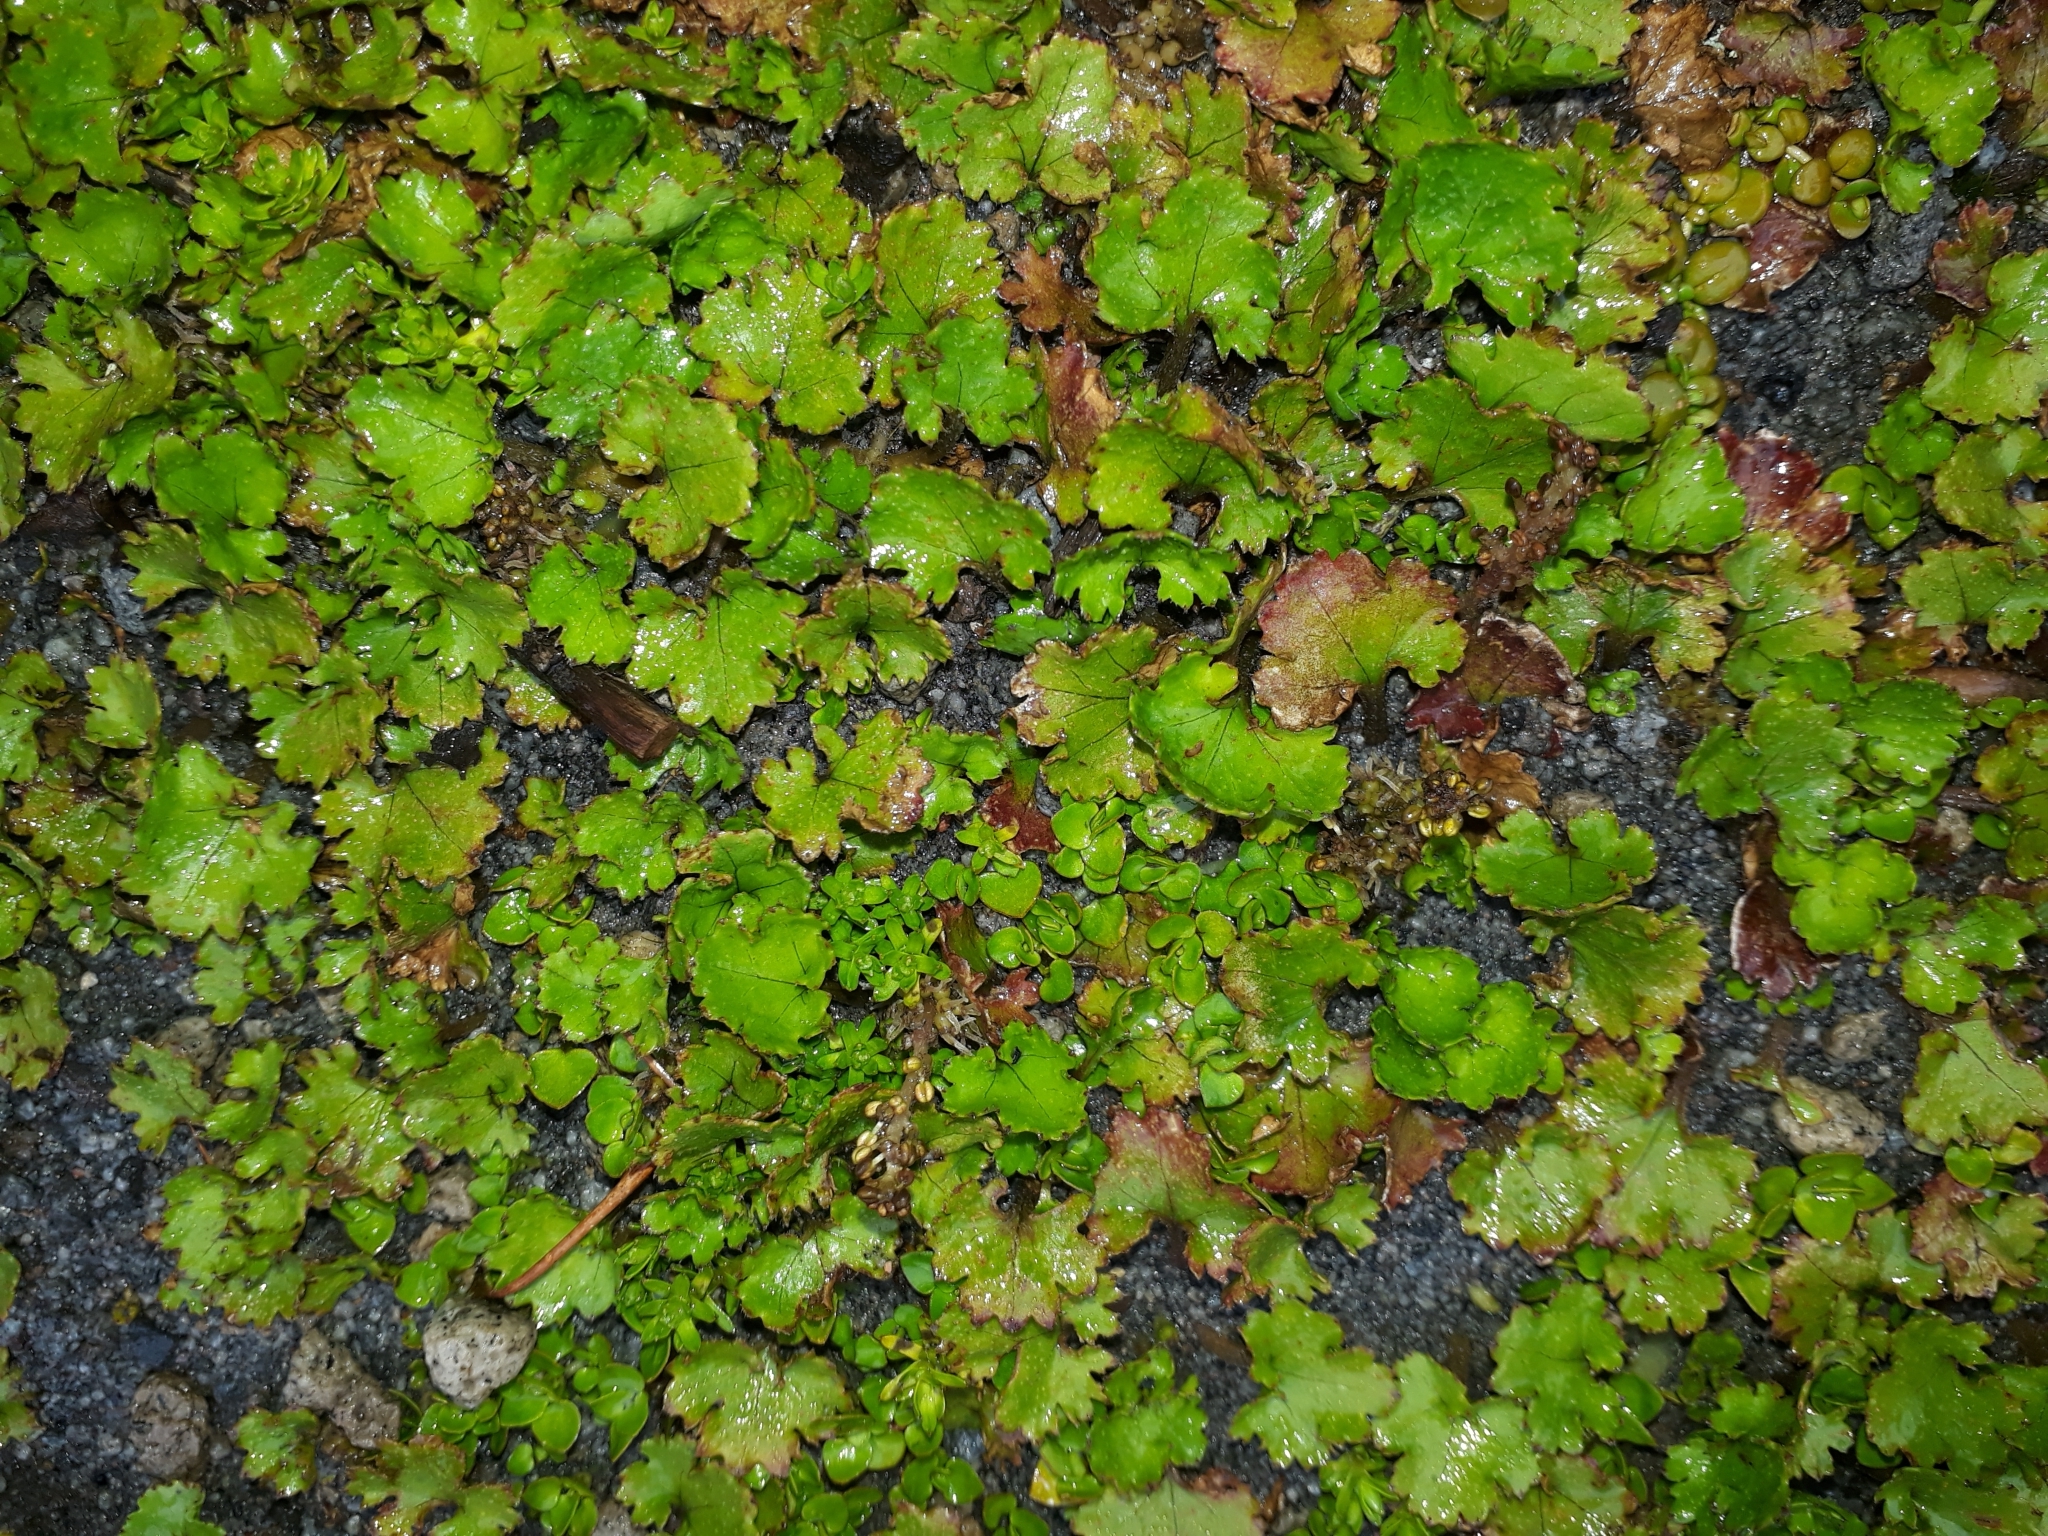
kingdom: Plantae
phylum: Tracheophyta
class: Magnoliopsida
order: Gunnerales
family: Gunneraceae
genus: Gunnera
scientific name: Gunnera monoica
